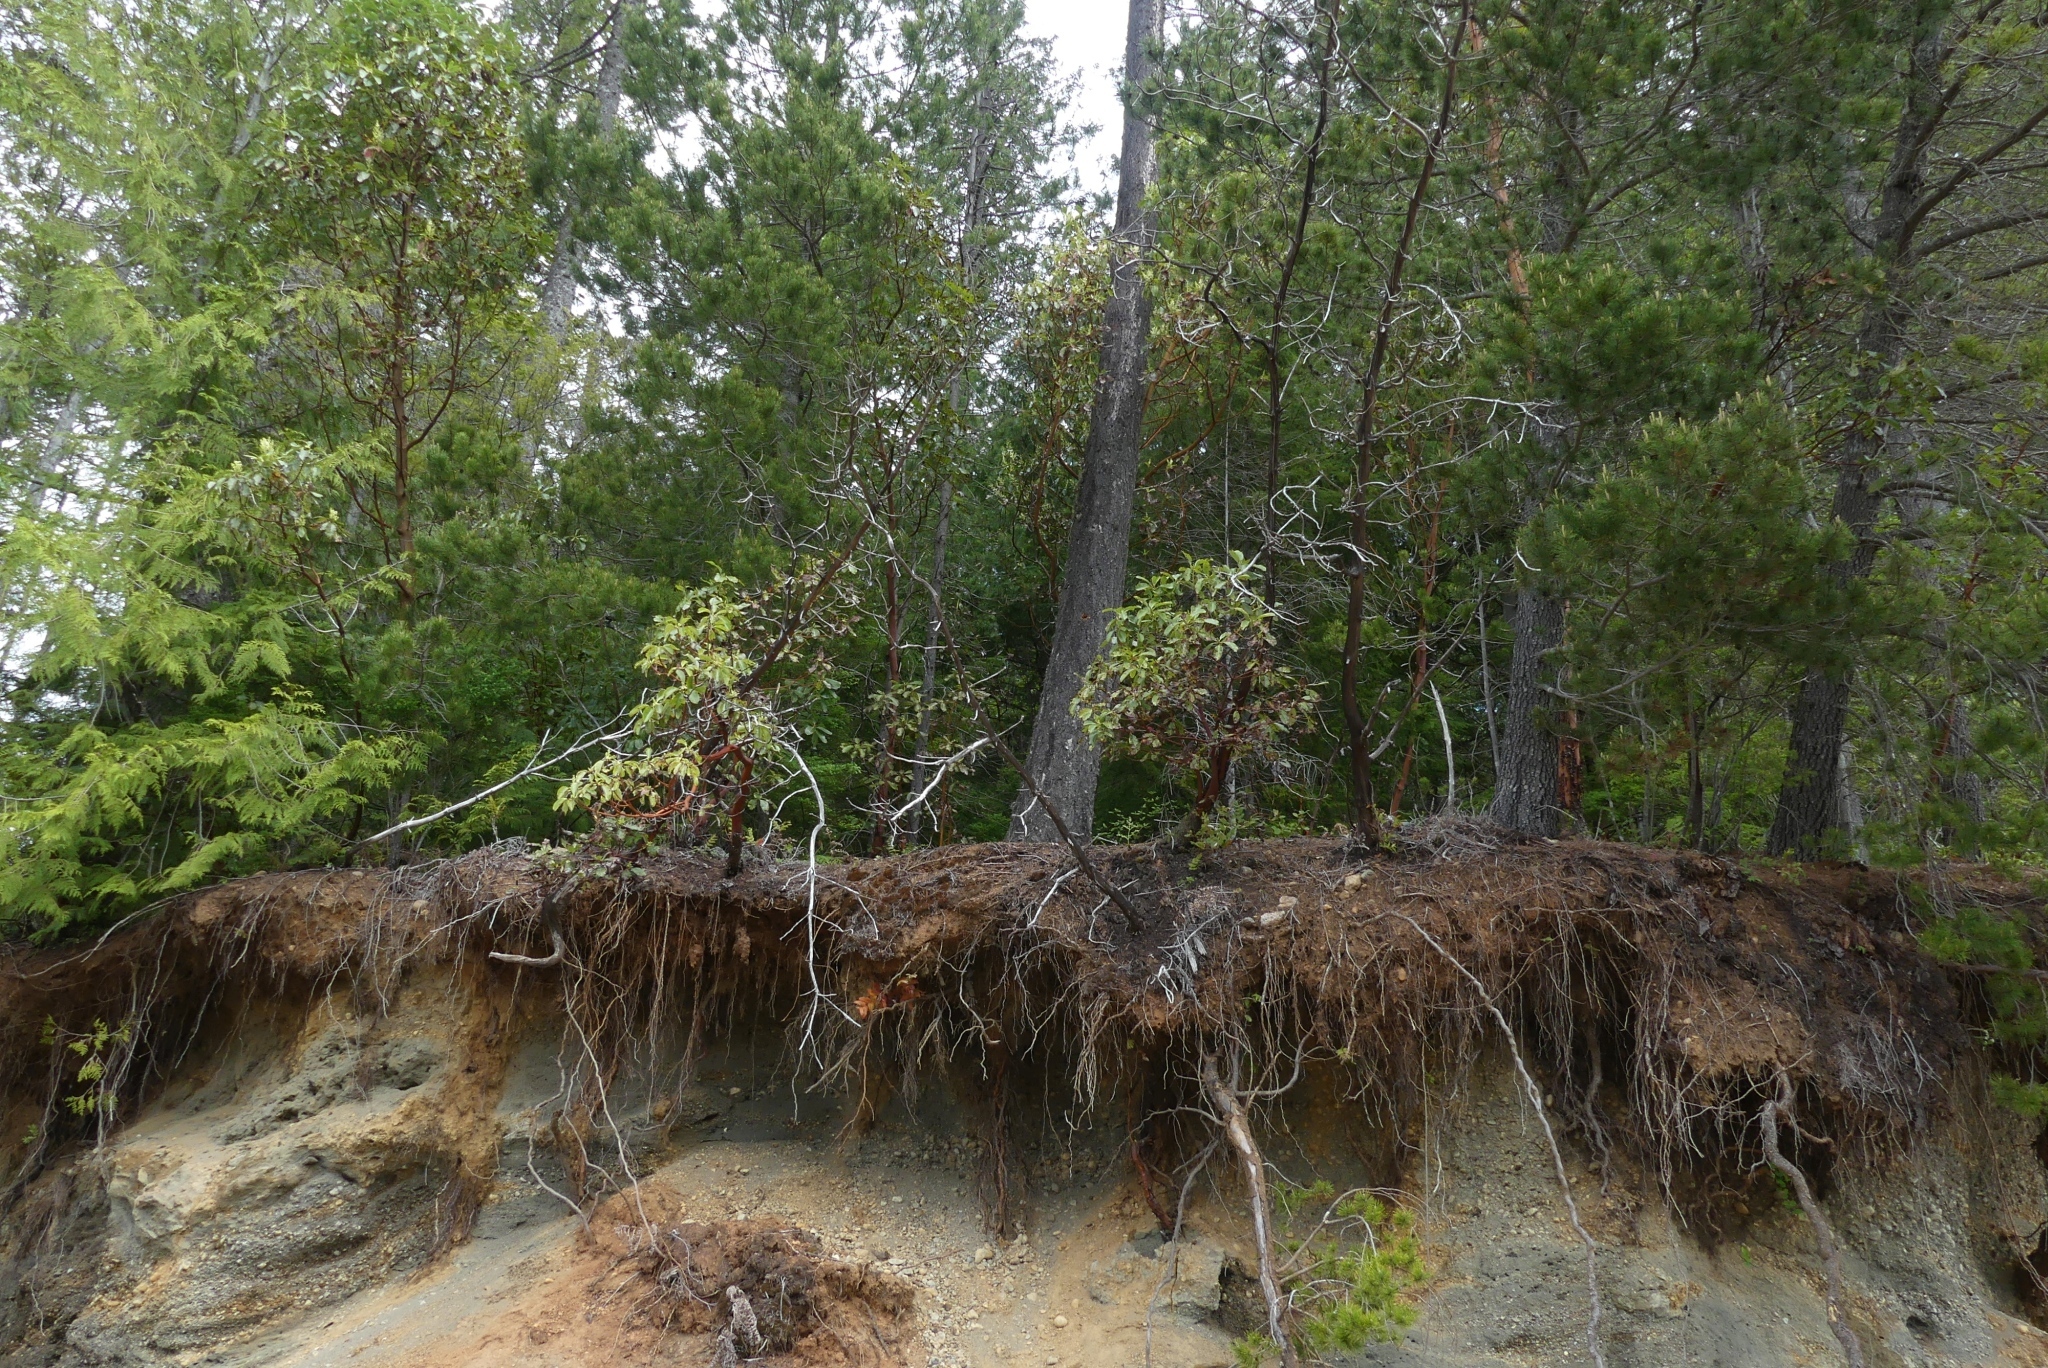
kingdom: Plantae
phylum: Tracheophyta
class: Magnoliopsida
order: Ericales
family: Ericaceae
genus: Arbutus
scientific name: Arbutus menziesii
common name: Pacific madrone
